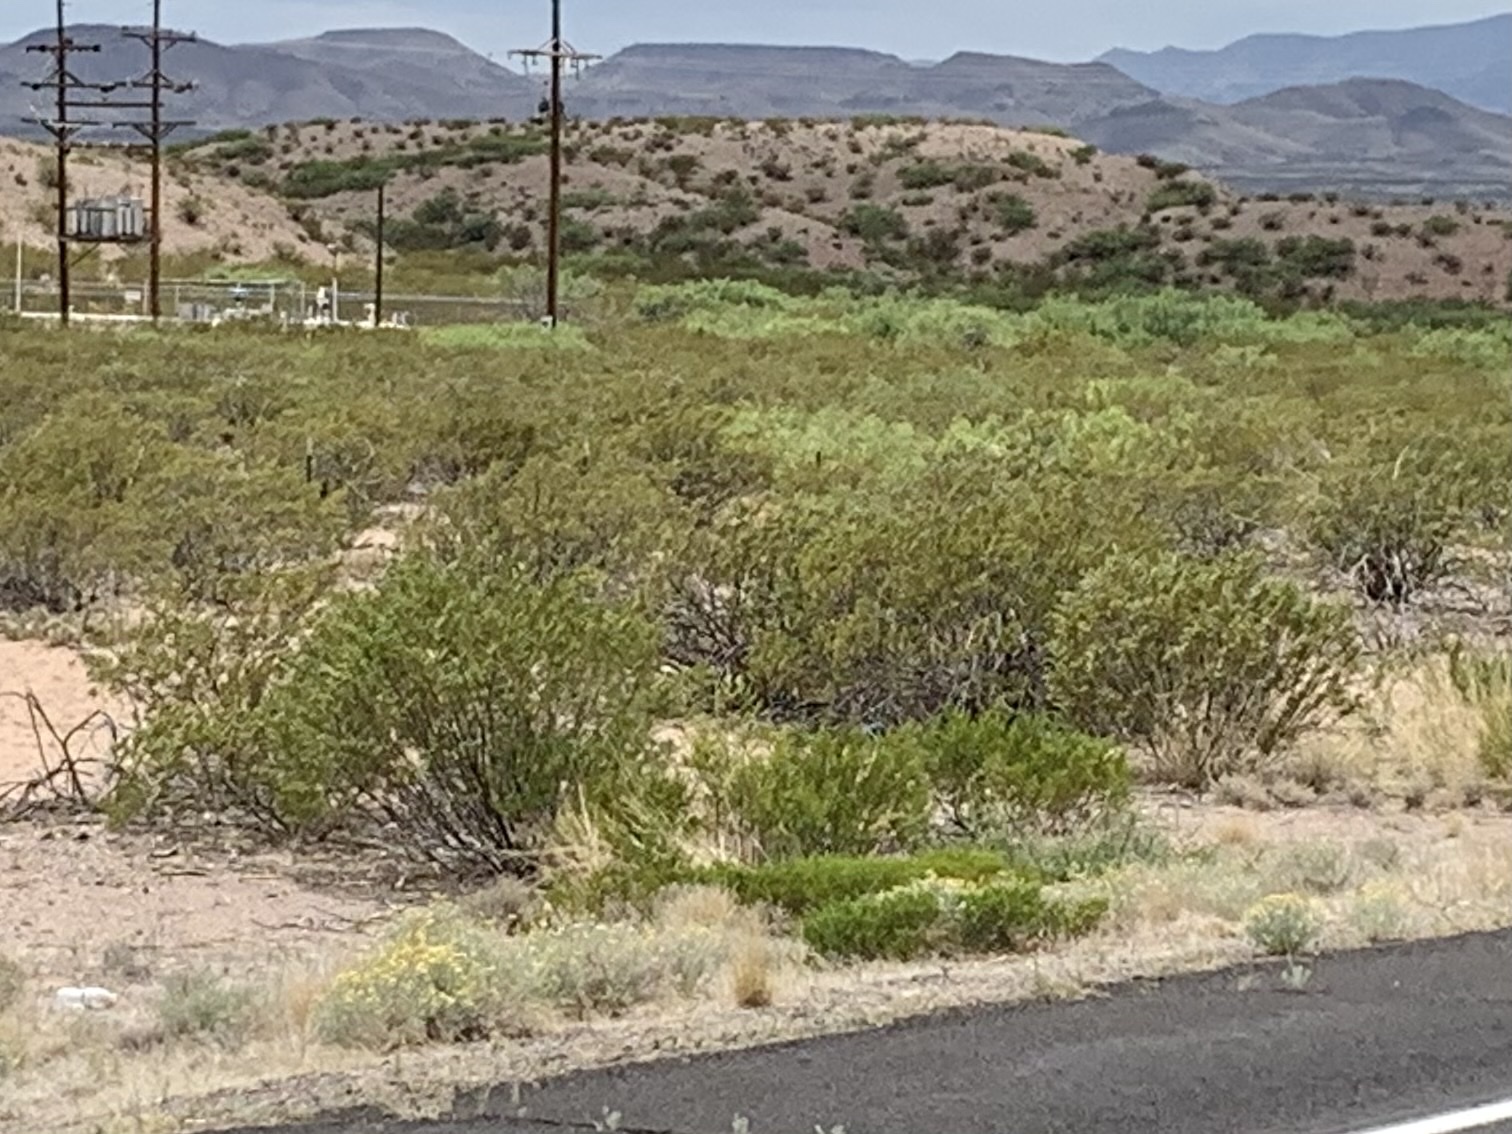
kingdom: Plantae
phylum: Tracheophyta
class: Magnoliopsida
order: Zygophyllales
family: Zygophyllaceae
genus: Larrea
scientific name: Larrea tridentata
